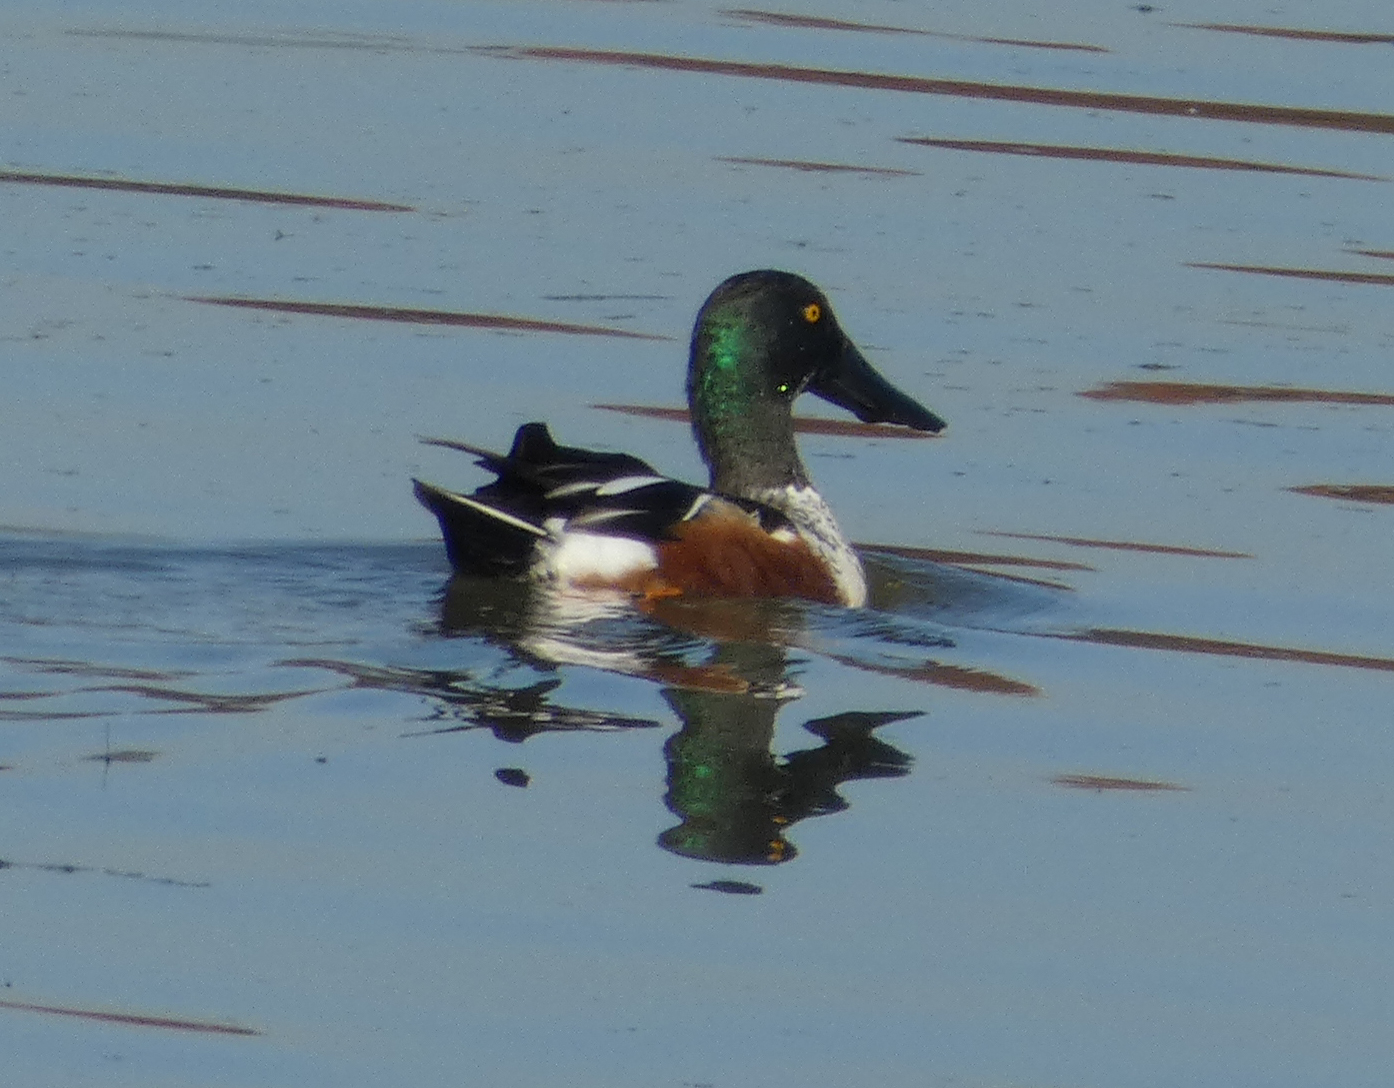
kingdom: Animalia
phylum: Chordata
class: Aves
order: Anseriformes
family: Anatidae
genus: Spatula
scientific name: Spatula clypeata
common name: Northern shoveler
